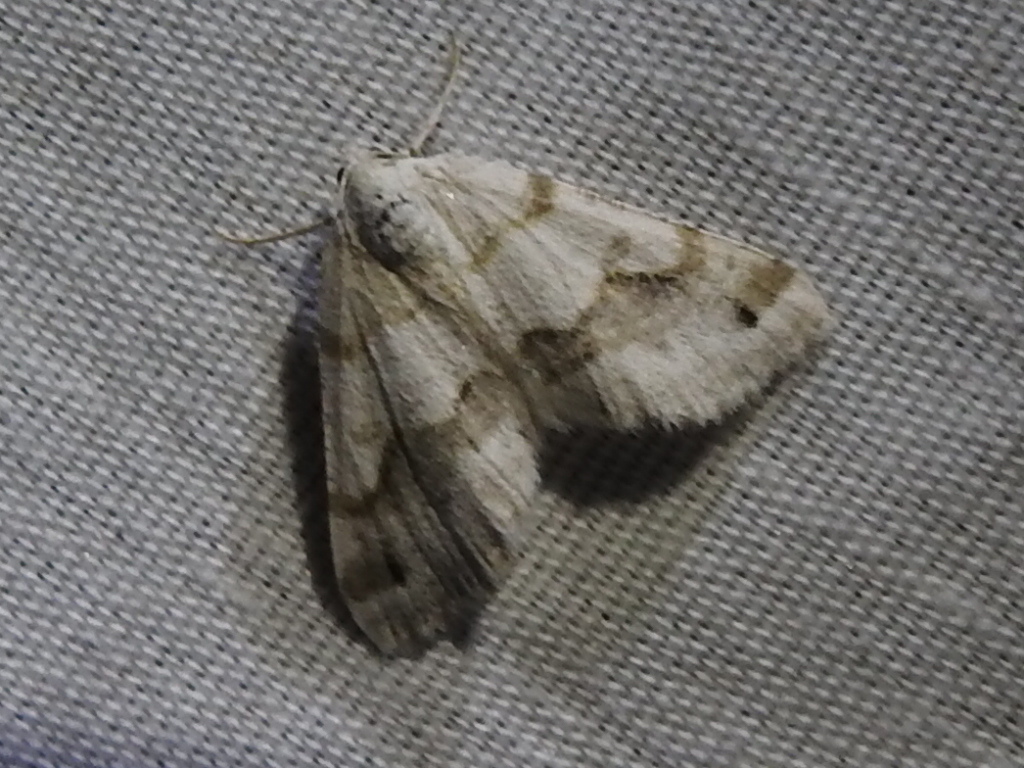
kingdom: Animalia
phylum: Arthropoda
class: Insecta
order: Lepidoptera
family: Geometridae
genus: Macaria
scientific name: Macaria pallipennata
